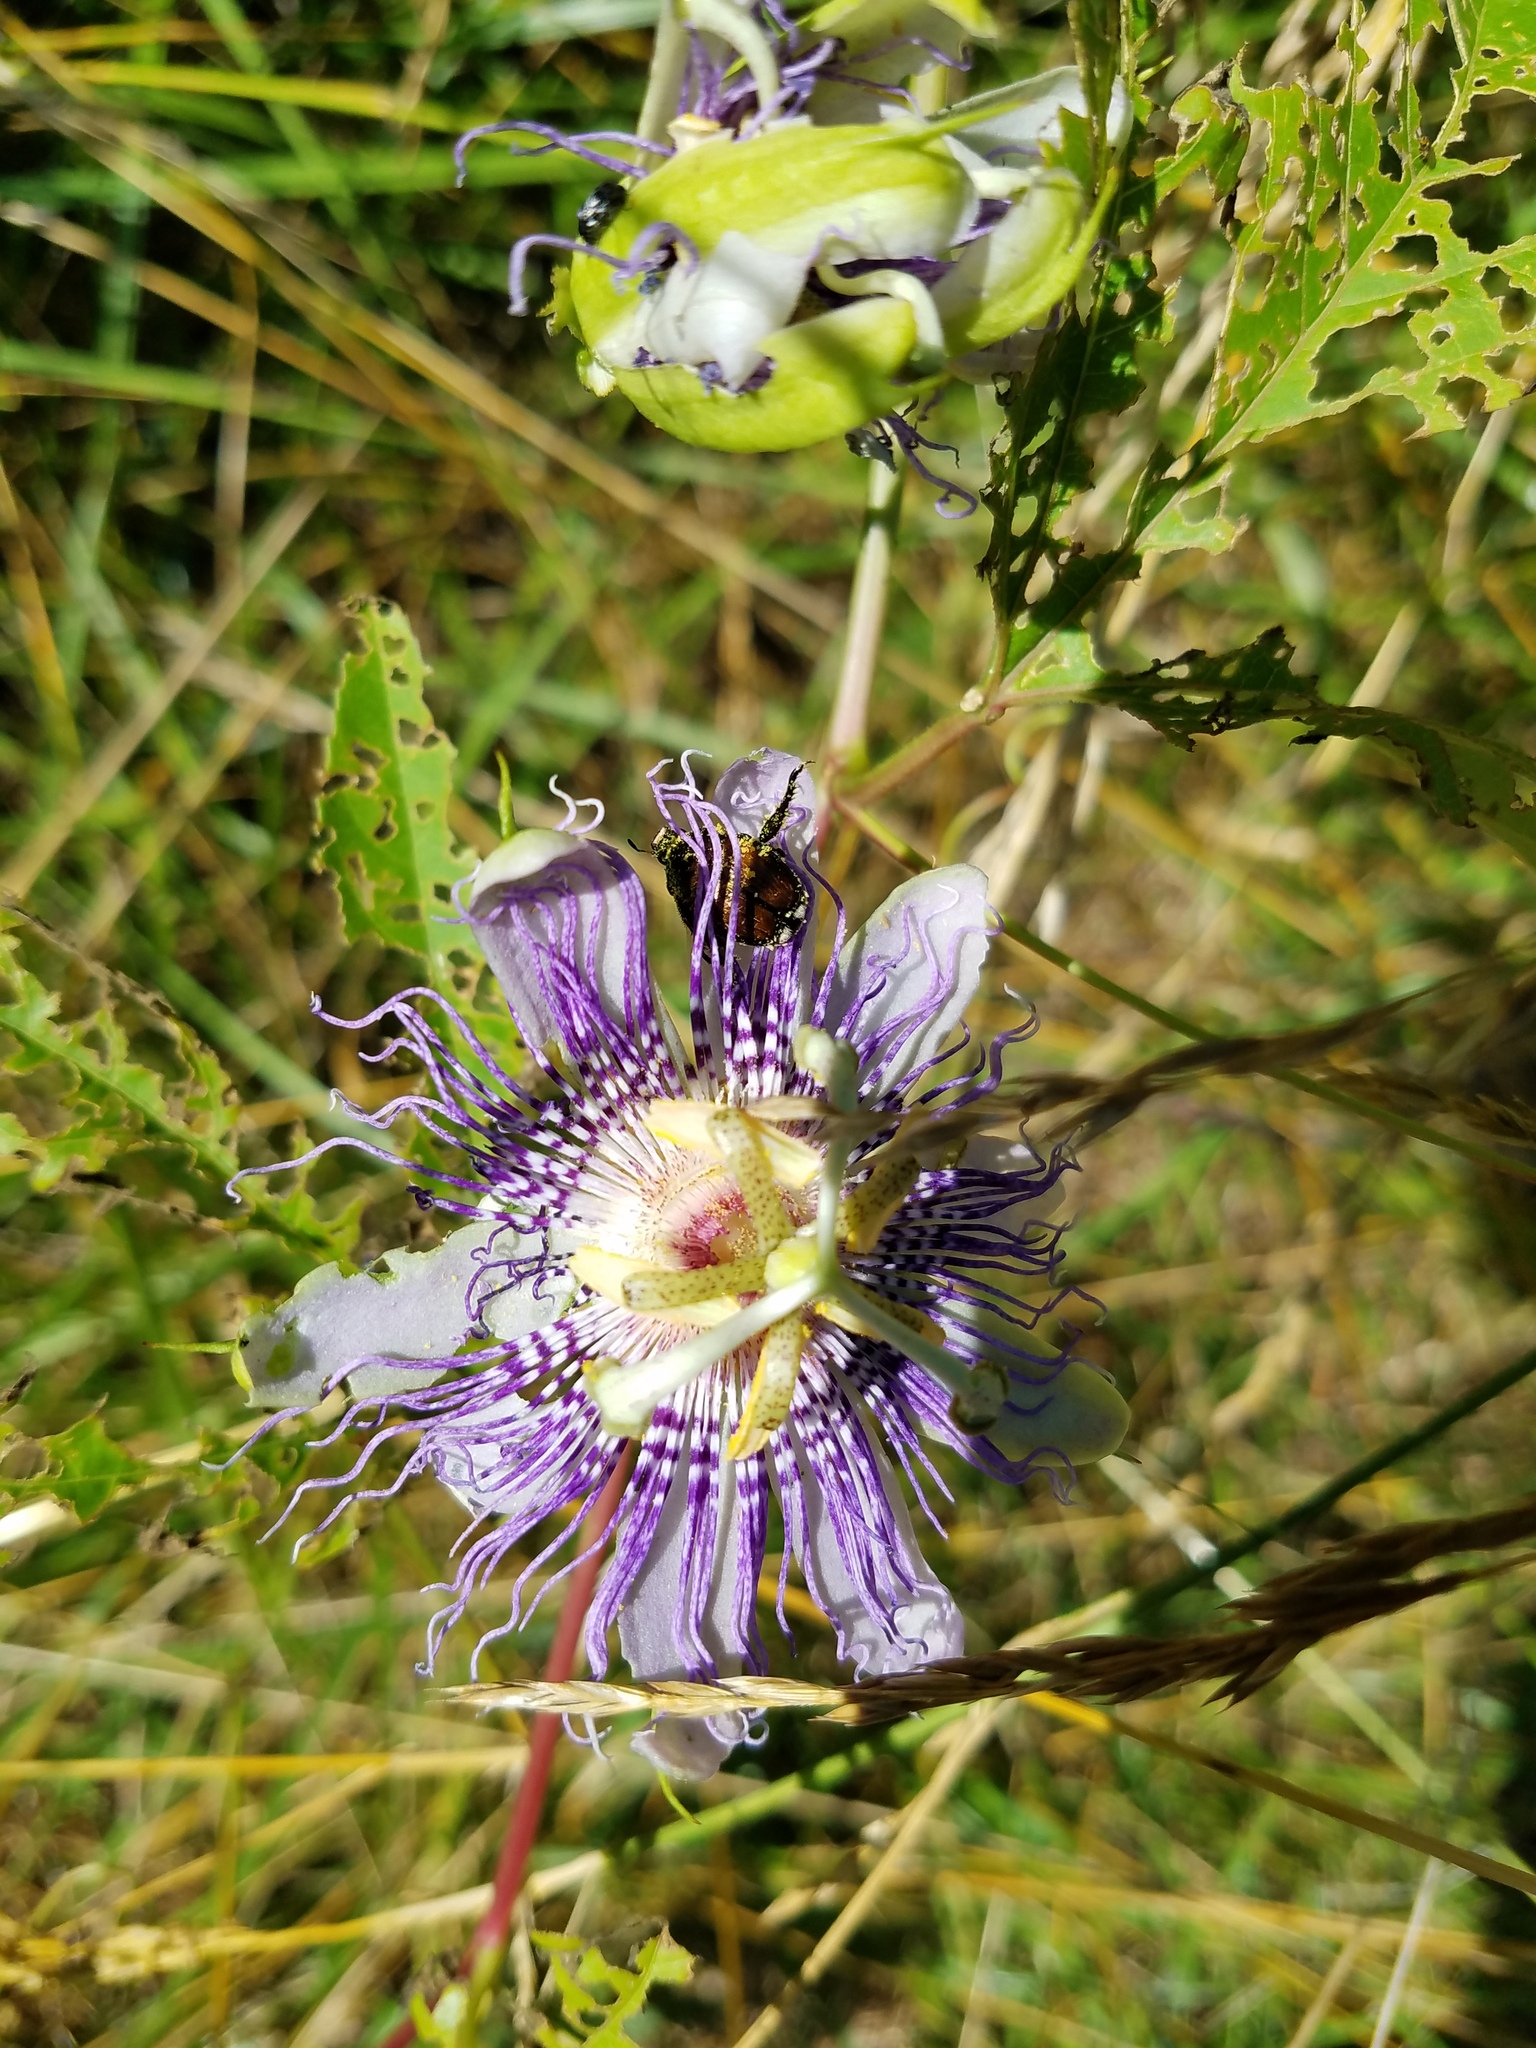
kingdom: Plantae
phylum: Tracheophyta
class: Magnoliopsida
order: Malpighiales
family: Passifloraceae
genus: Passiflora
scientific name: Passiflora incarnata
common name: Apricot-vine
